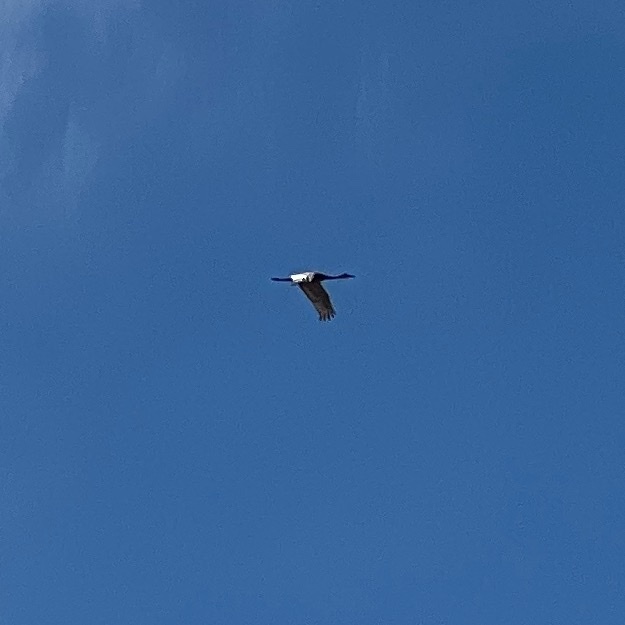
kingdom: Animalia
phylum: Chordata
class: Aves
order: Gruiformes
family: Gruidae
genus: Grus
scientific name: Grus canadensis
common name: Sandhill crane
